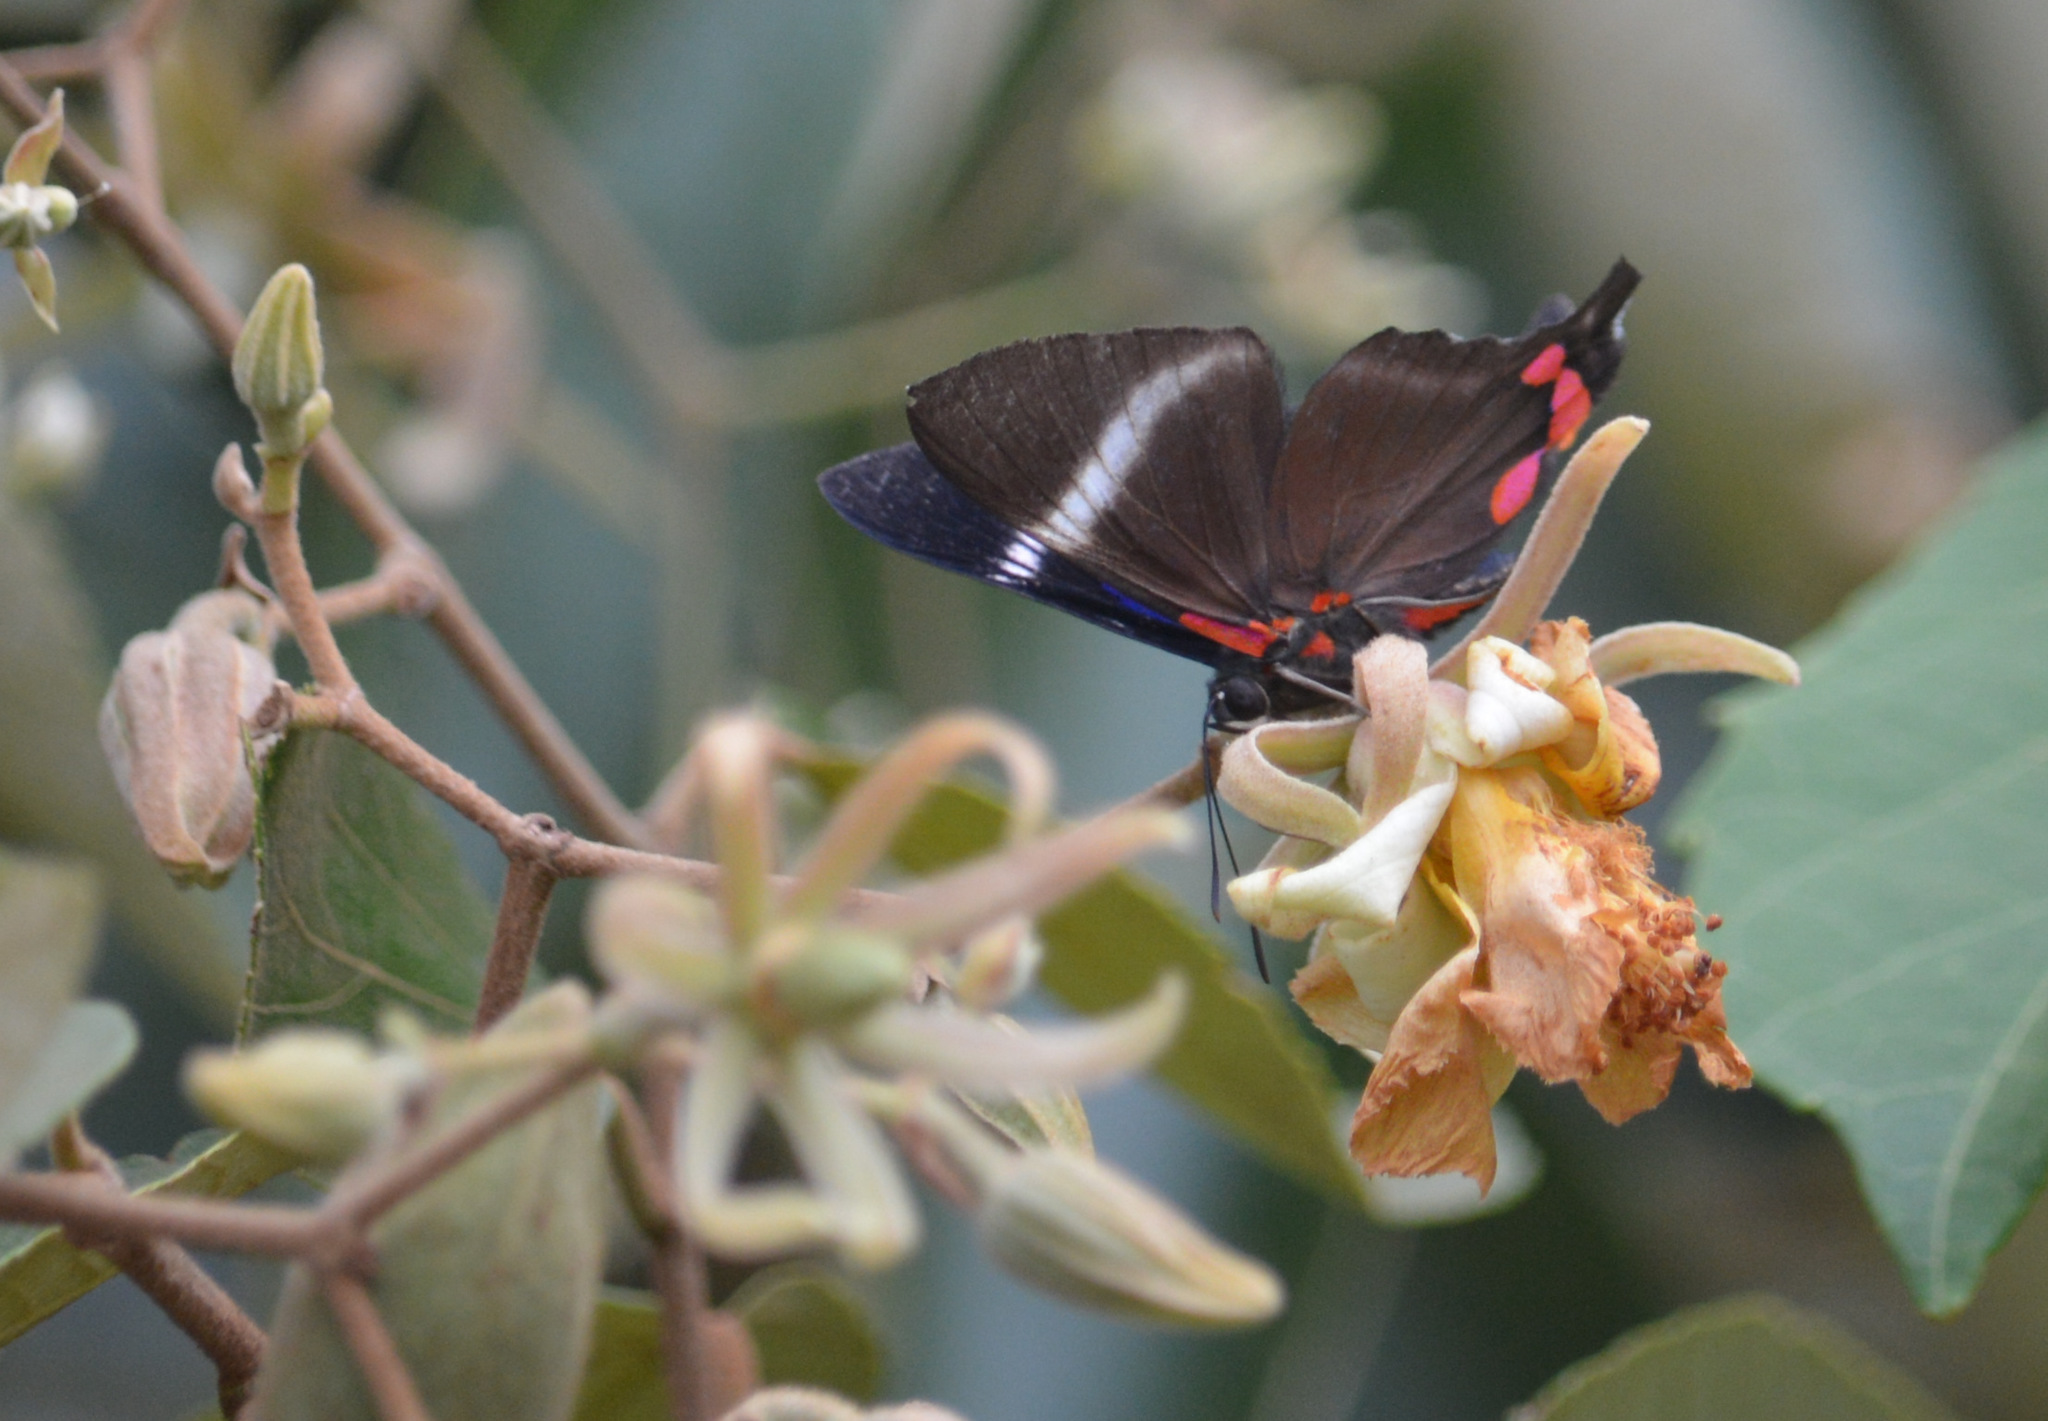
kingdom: Animalia
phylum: Arthropoda
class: Insecta
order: Lepidoptera
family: Riodinidae
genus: Rhetus
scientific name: Rhetus periander
